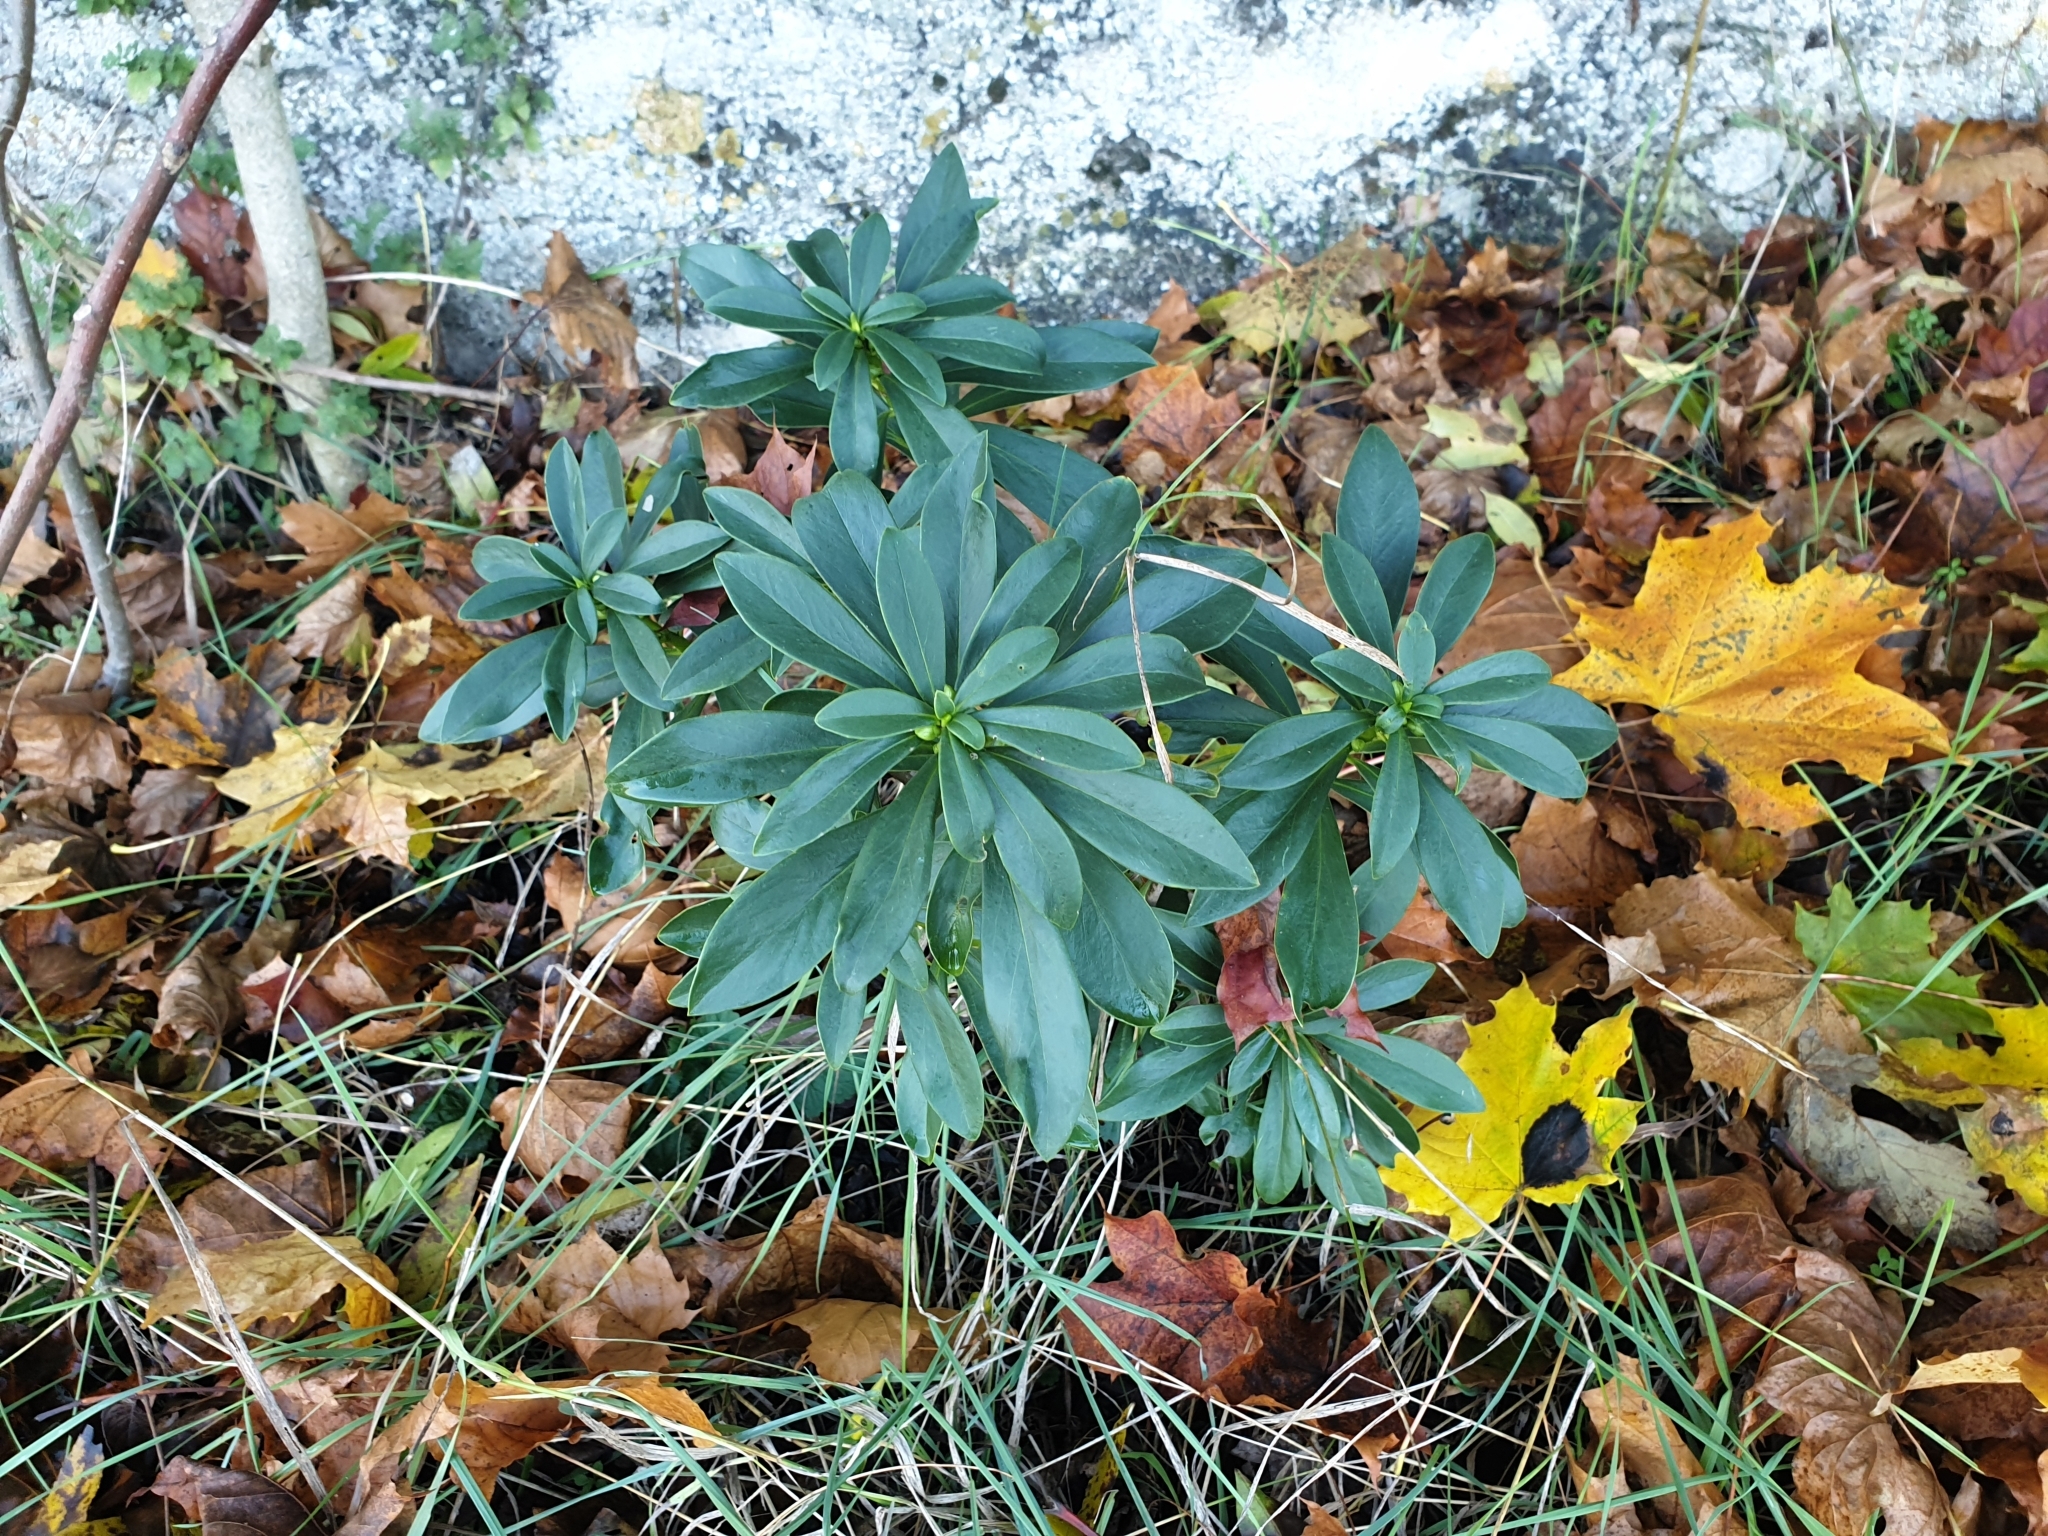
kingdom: Plantae
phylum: Tracheophyta
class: Magnoliopsida
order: Malvales
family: Thymelaeaceae
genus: Daphne
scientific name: Daphne laureola
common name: Spurge-laurel
